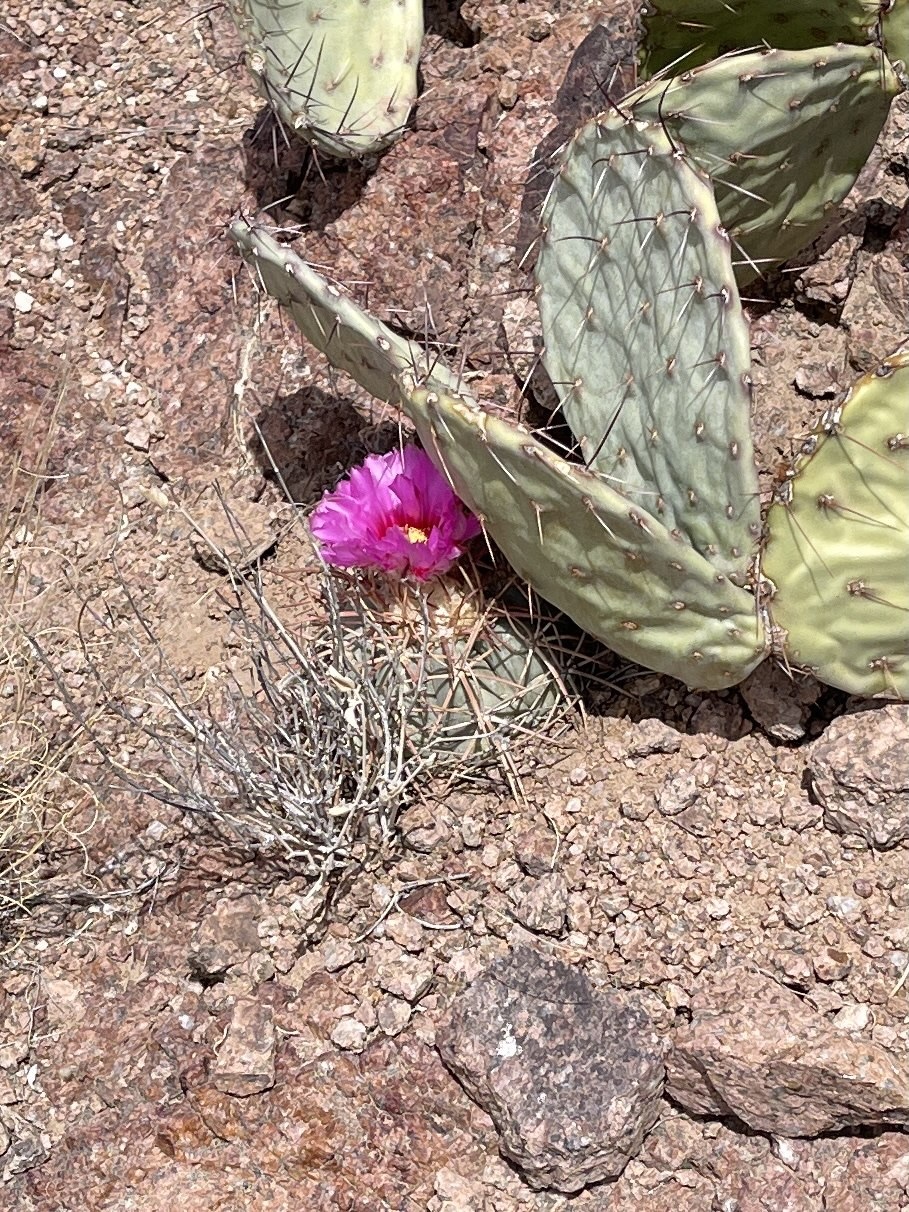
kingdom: Plantae
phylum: Tracheophyta
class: Magnoliopsida
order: Caryophyllales
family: Cactaceae
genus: Echinocactus
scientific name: Echinocactus horizonthalonius
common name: Devilshead
